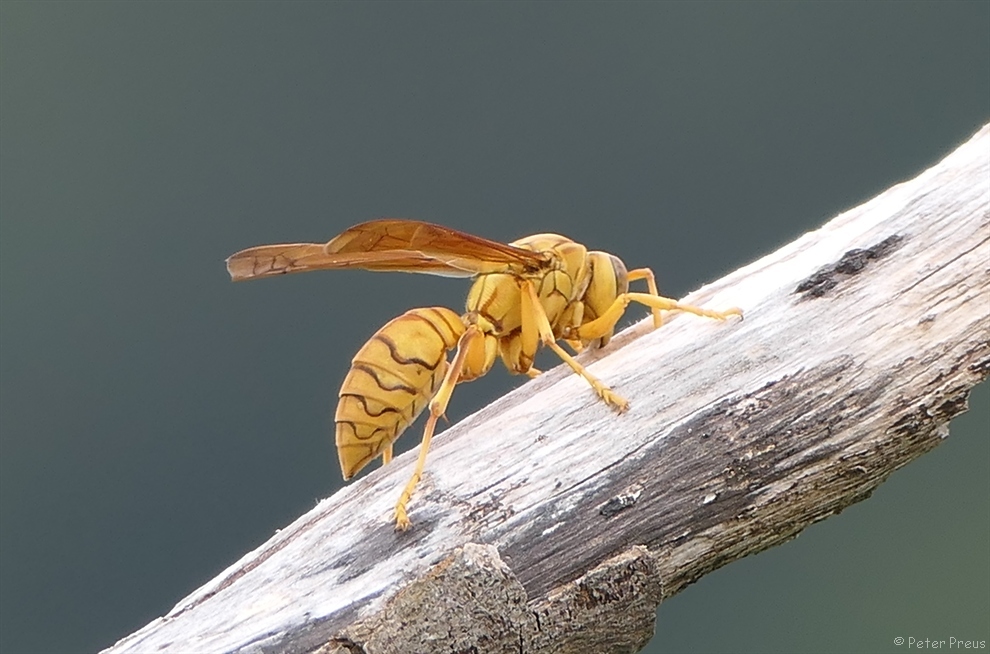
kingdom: Animalia
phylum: Arthropoda
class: Insecta
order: Hymenoptera
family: Eumenidae
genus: Polistes
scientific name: Polistes olivaceus
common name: Paper wasp
